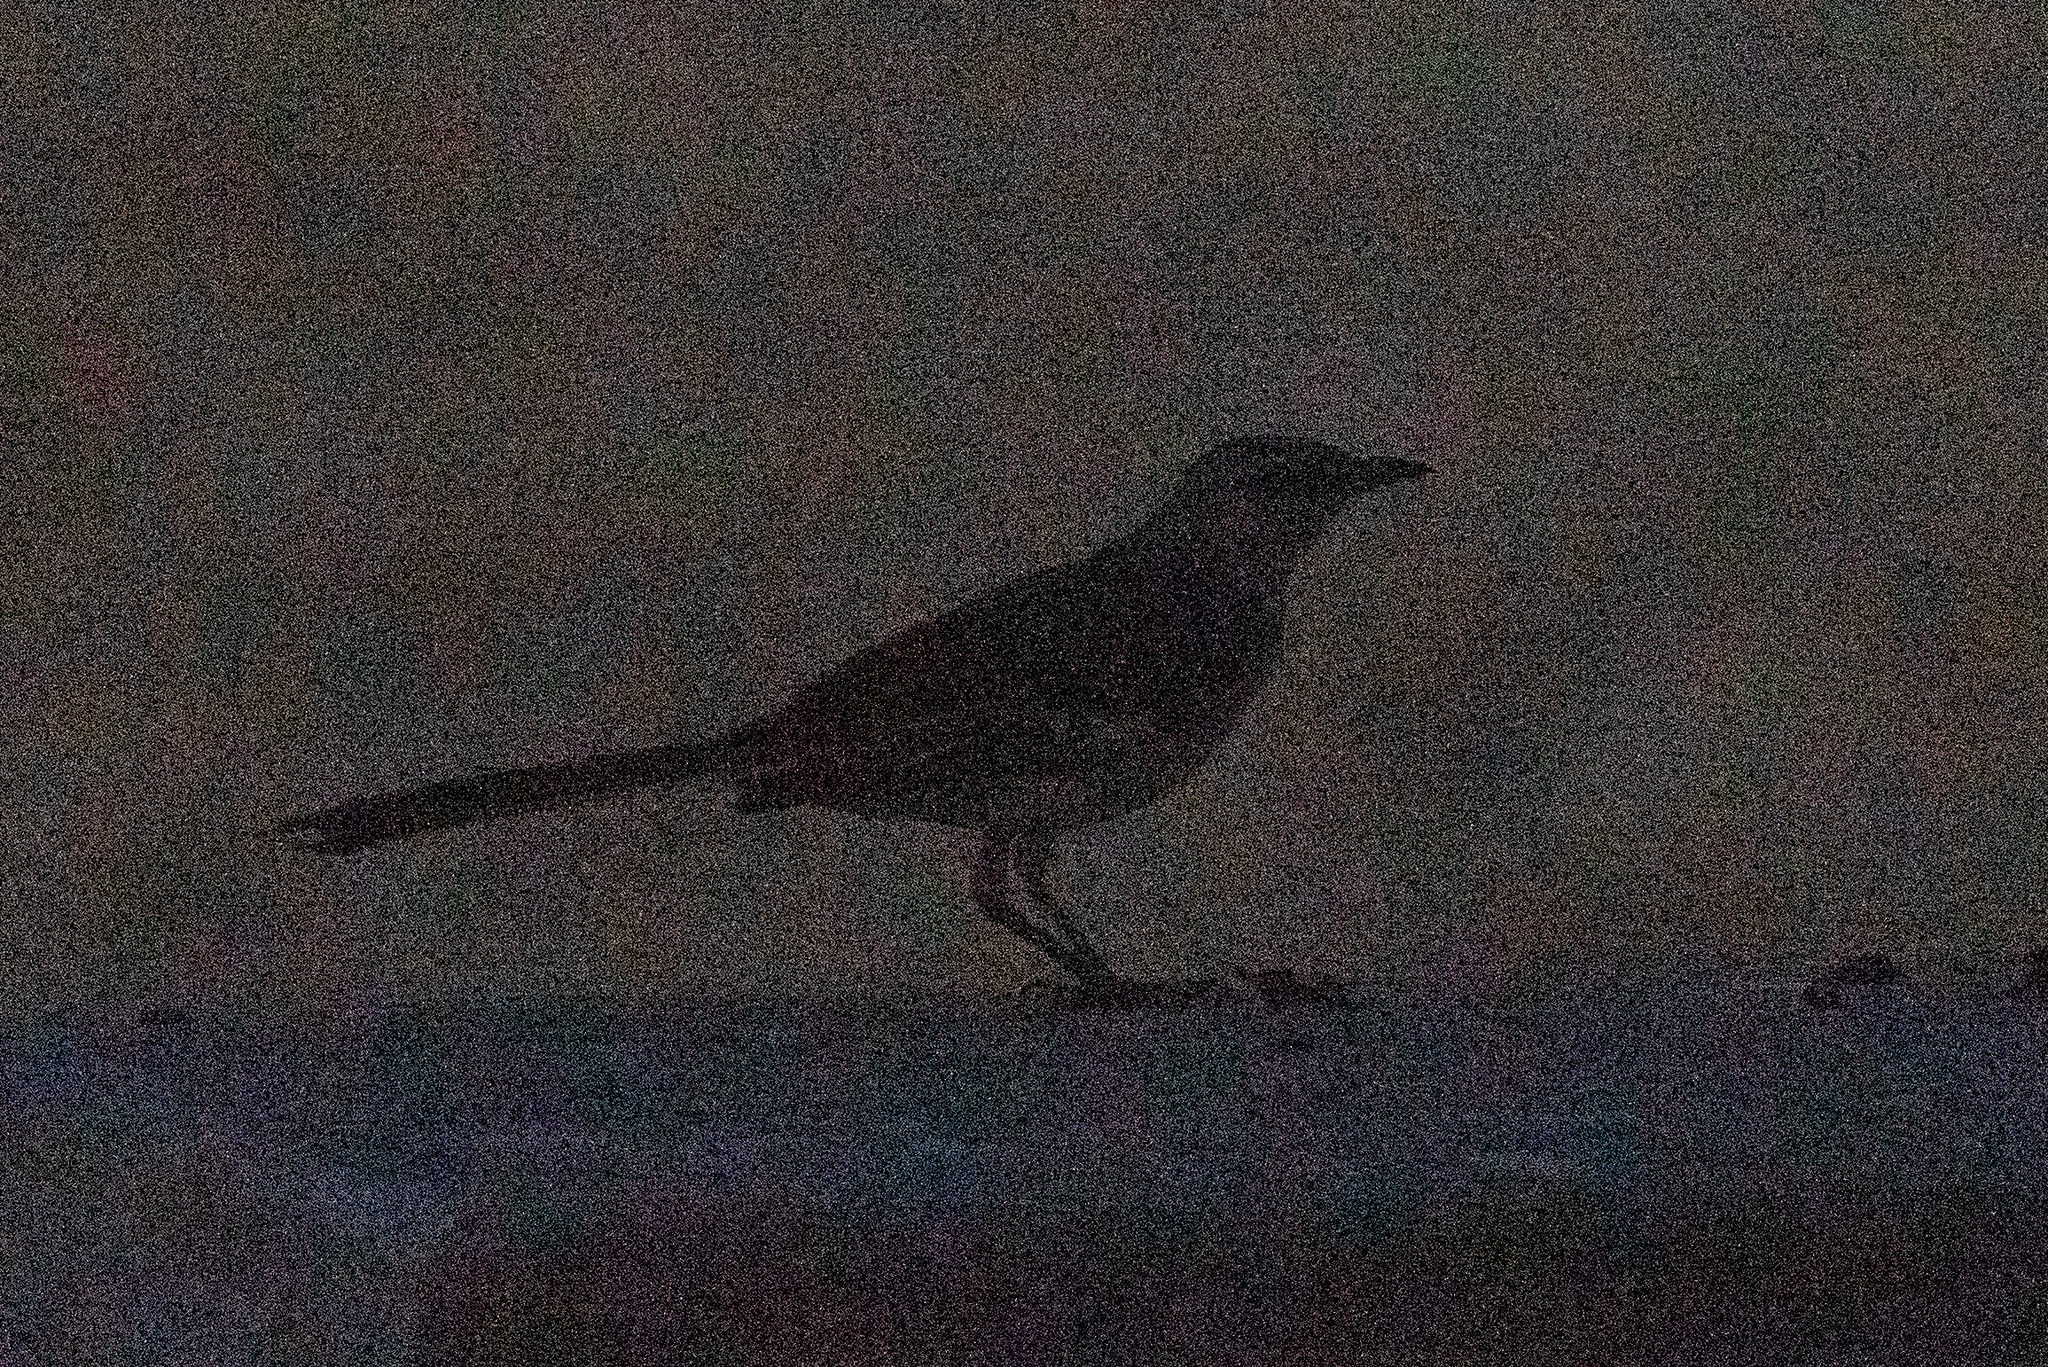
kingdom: Animalia
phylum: Chordata
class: Aves
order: Passeriformes
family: Mimidae
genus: Mimus
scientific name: Mimus polyglottos
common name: Northern mockingbird
